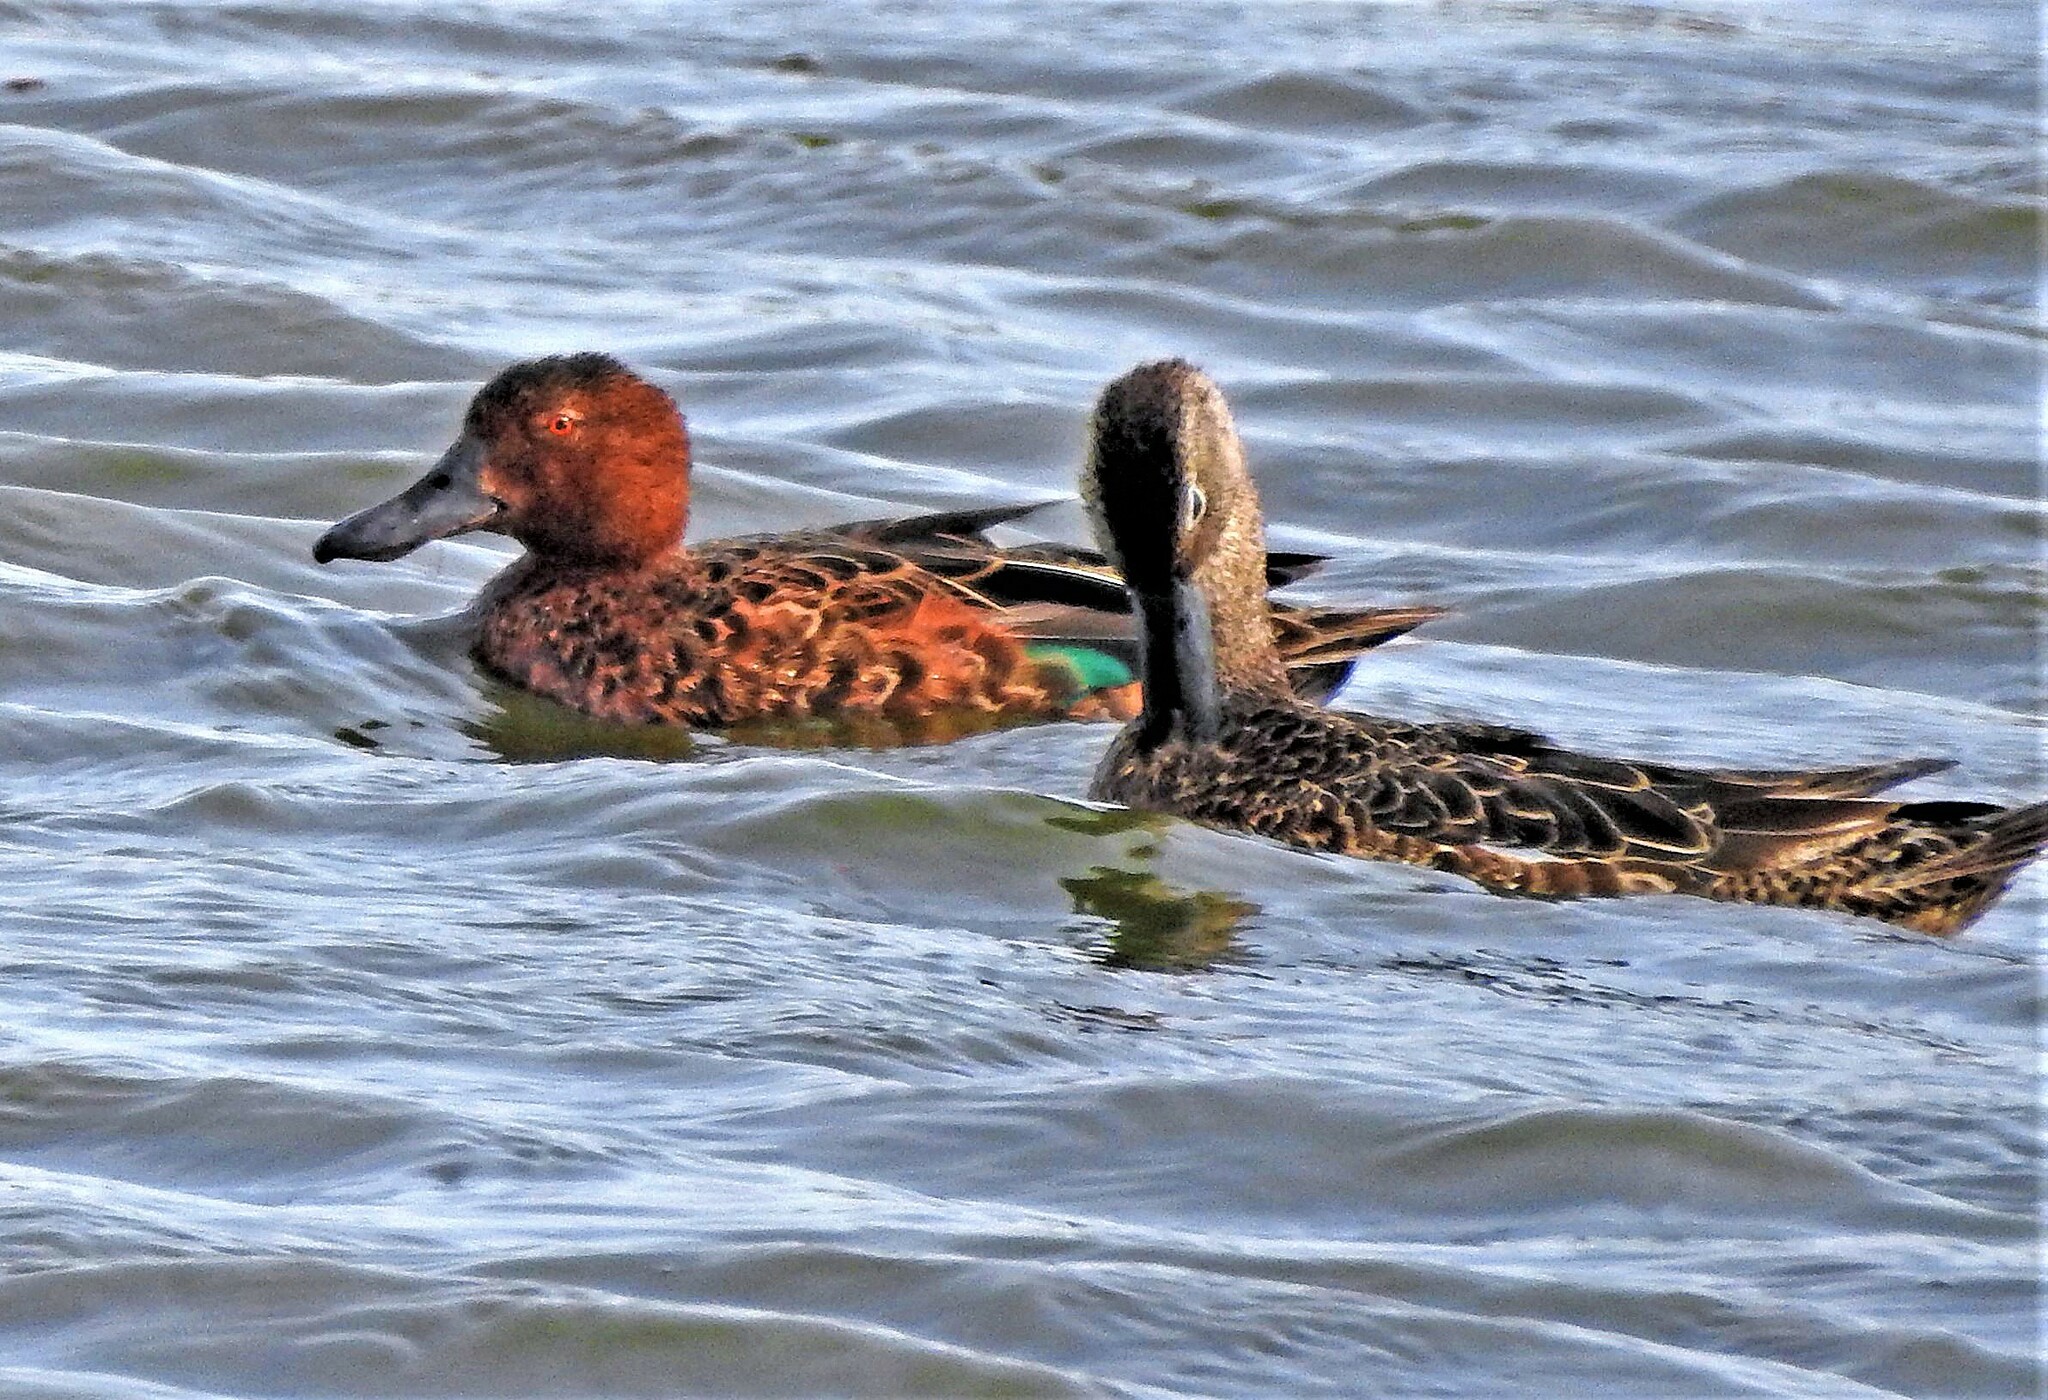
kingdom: Animalia
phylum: Chordata
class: Aves
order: Anseriformes
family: Anatidae
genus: Spatula
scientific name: Spatula cyanoptera
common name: Cinnamon teal
